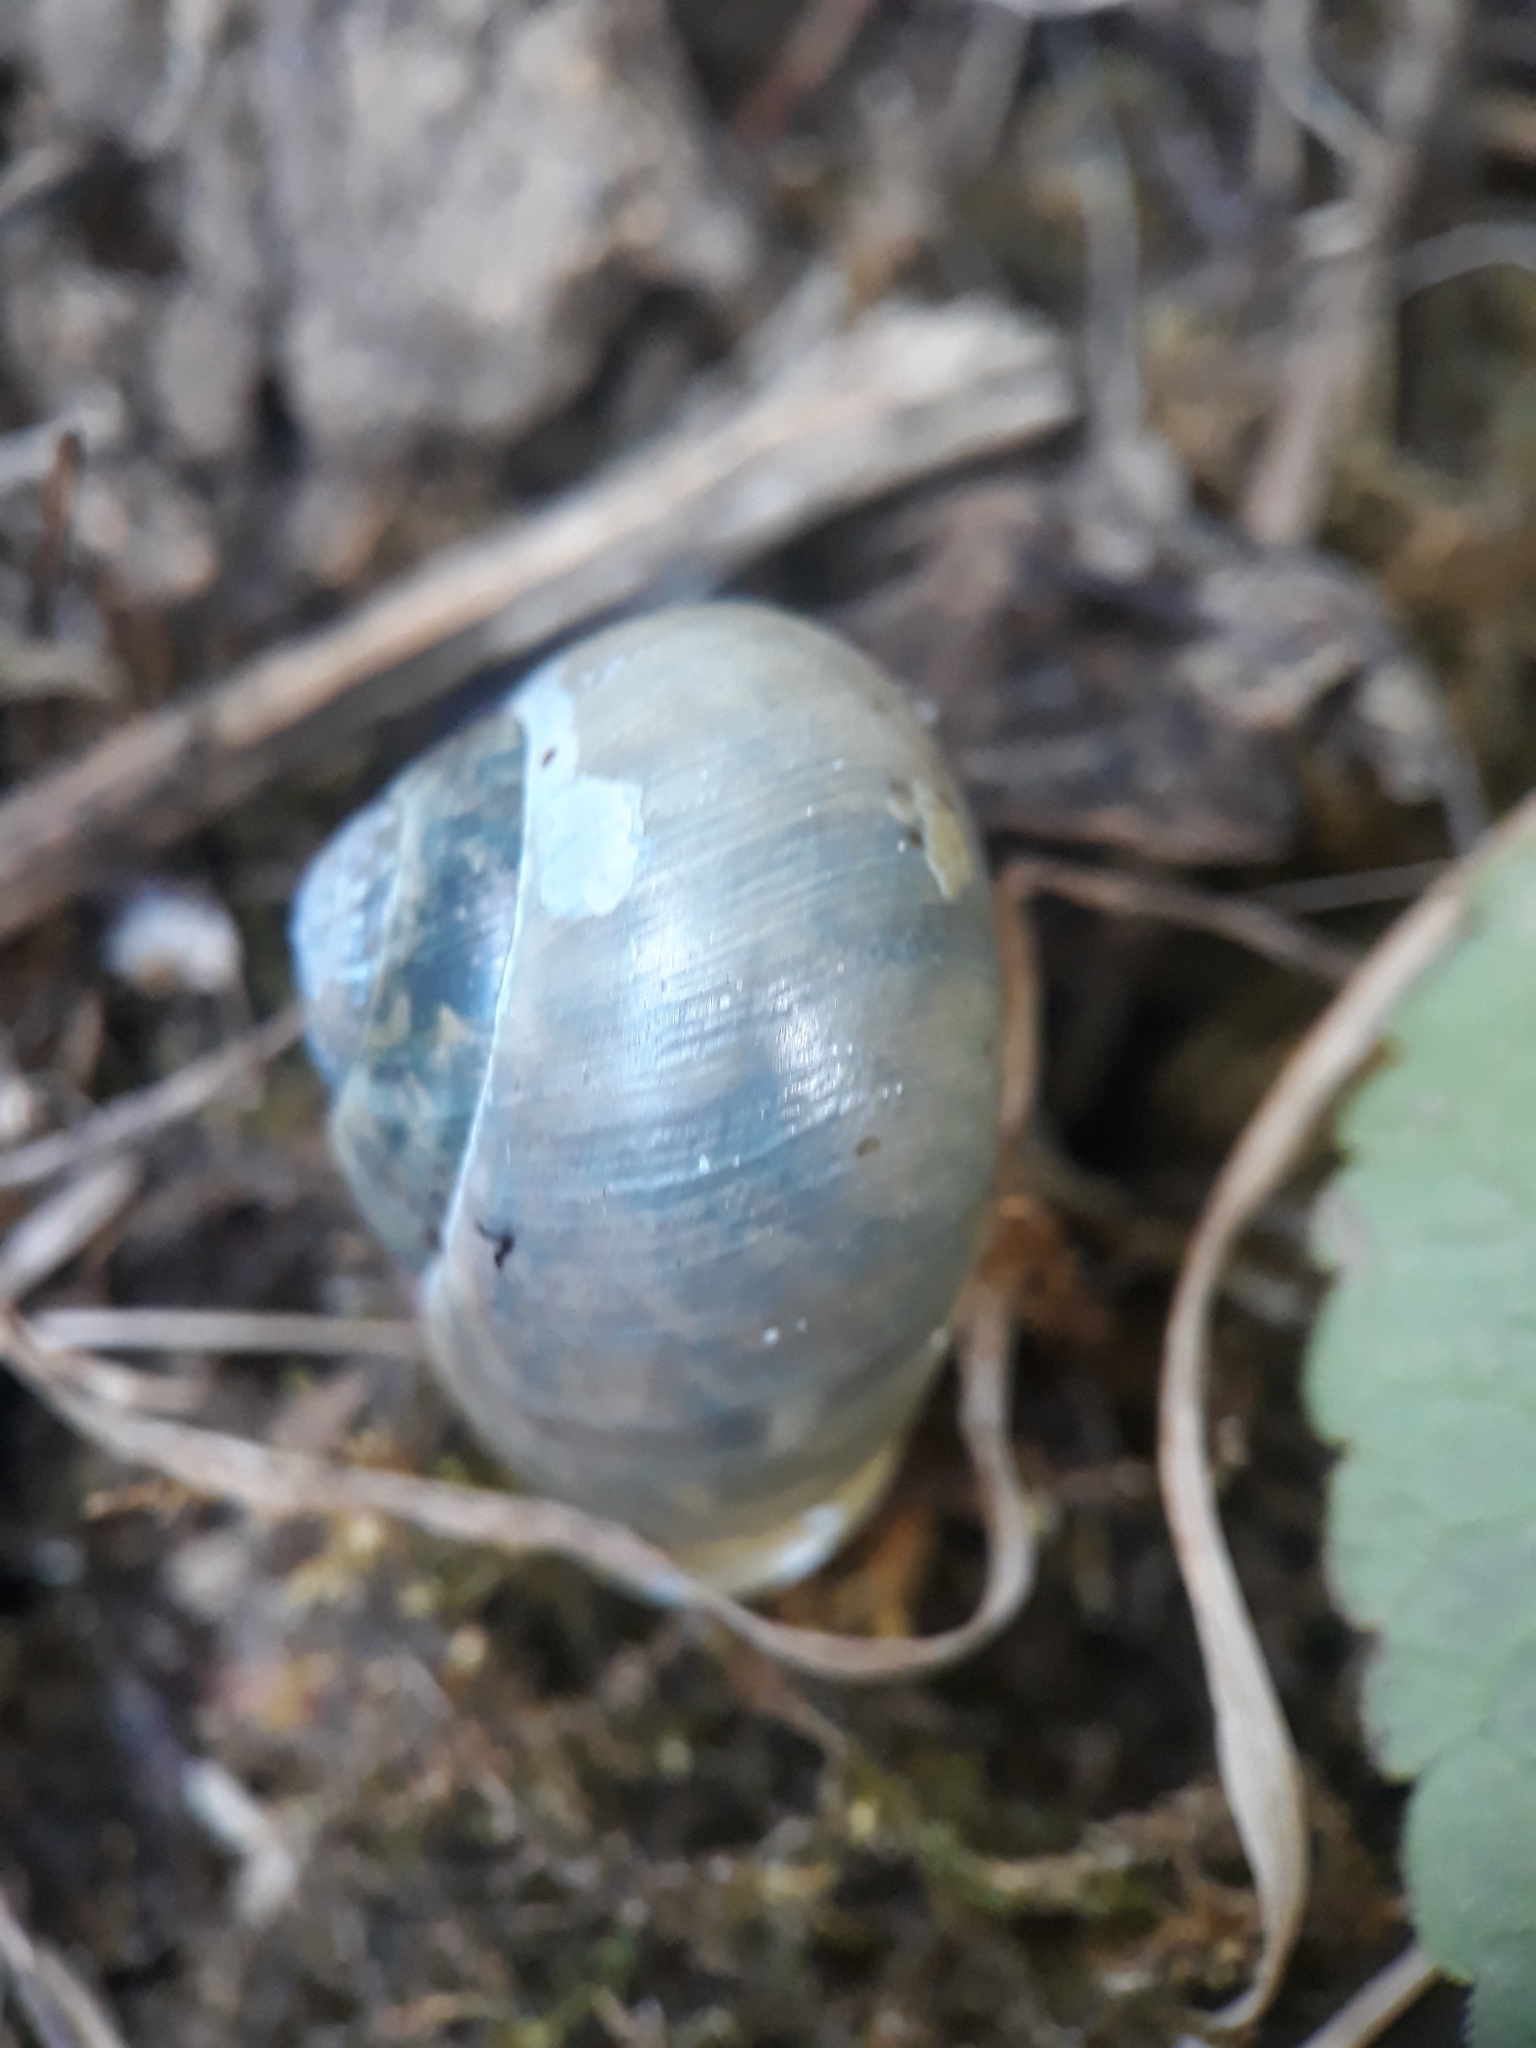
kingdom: Animalia
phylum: Mollusca
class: Gastropoda
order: Stylommatophora
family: Helicidae
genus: Cepaea
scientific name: Cepaea hortensis
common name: White-lip gardensnail
